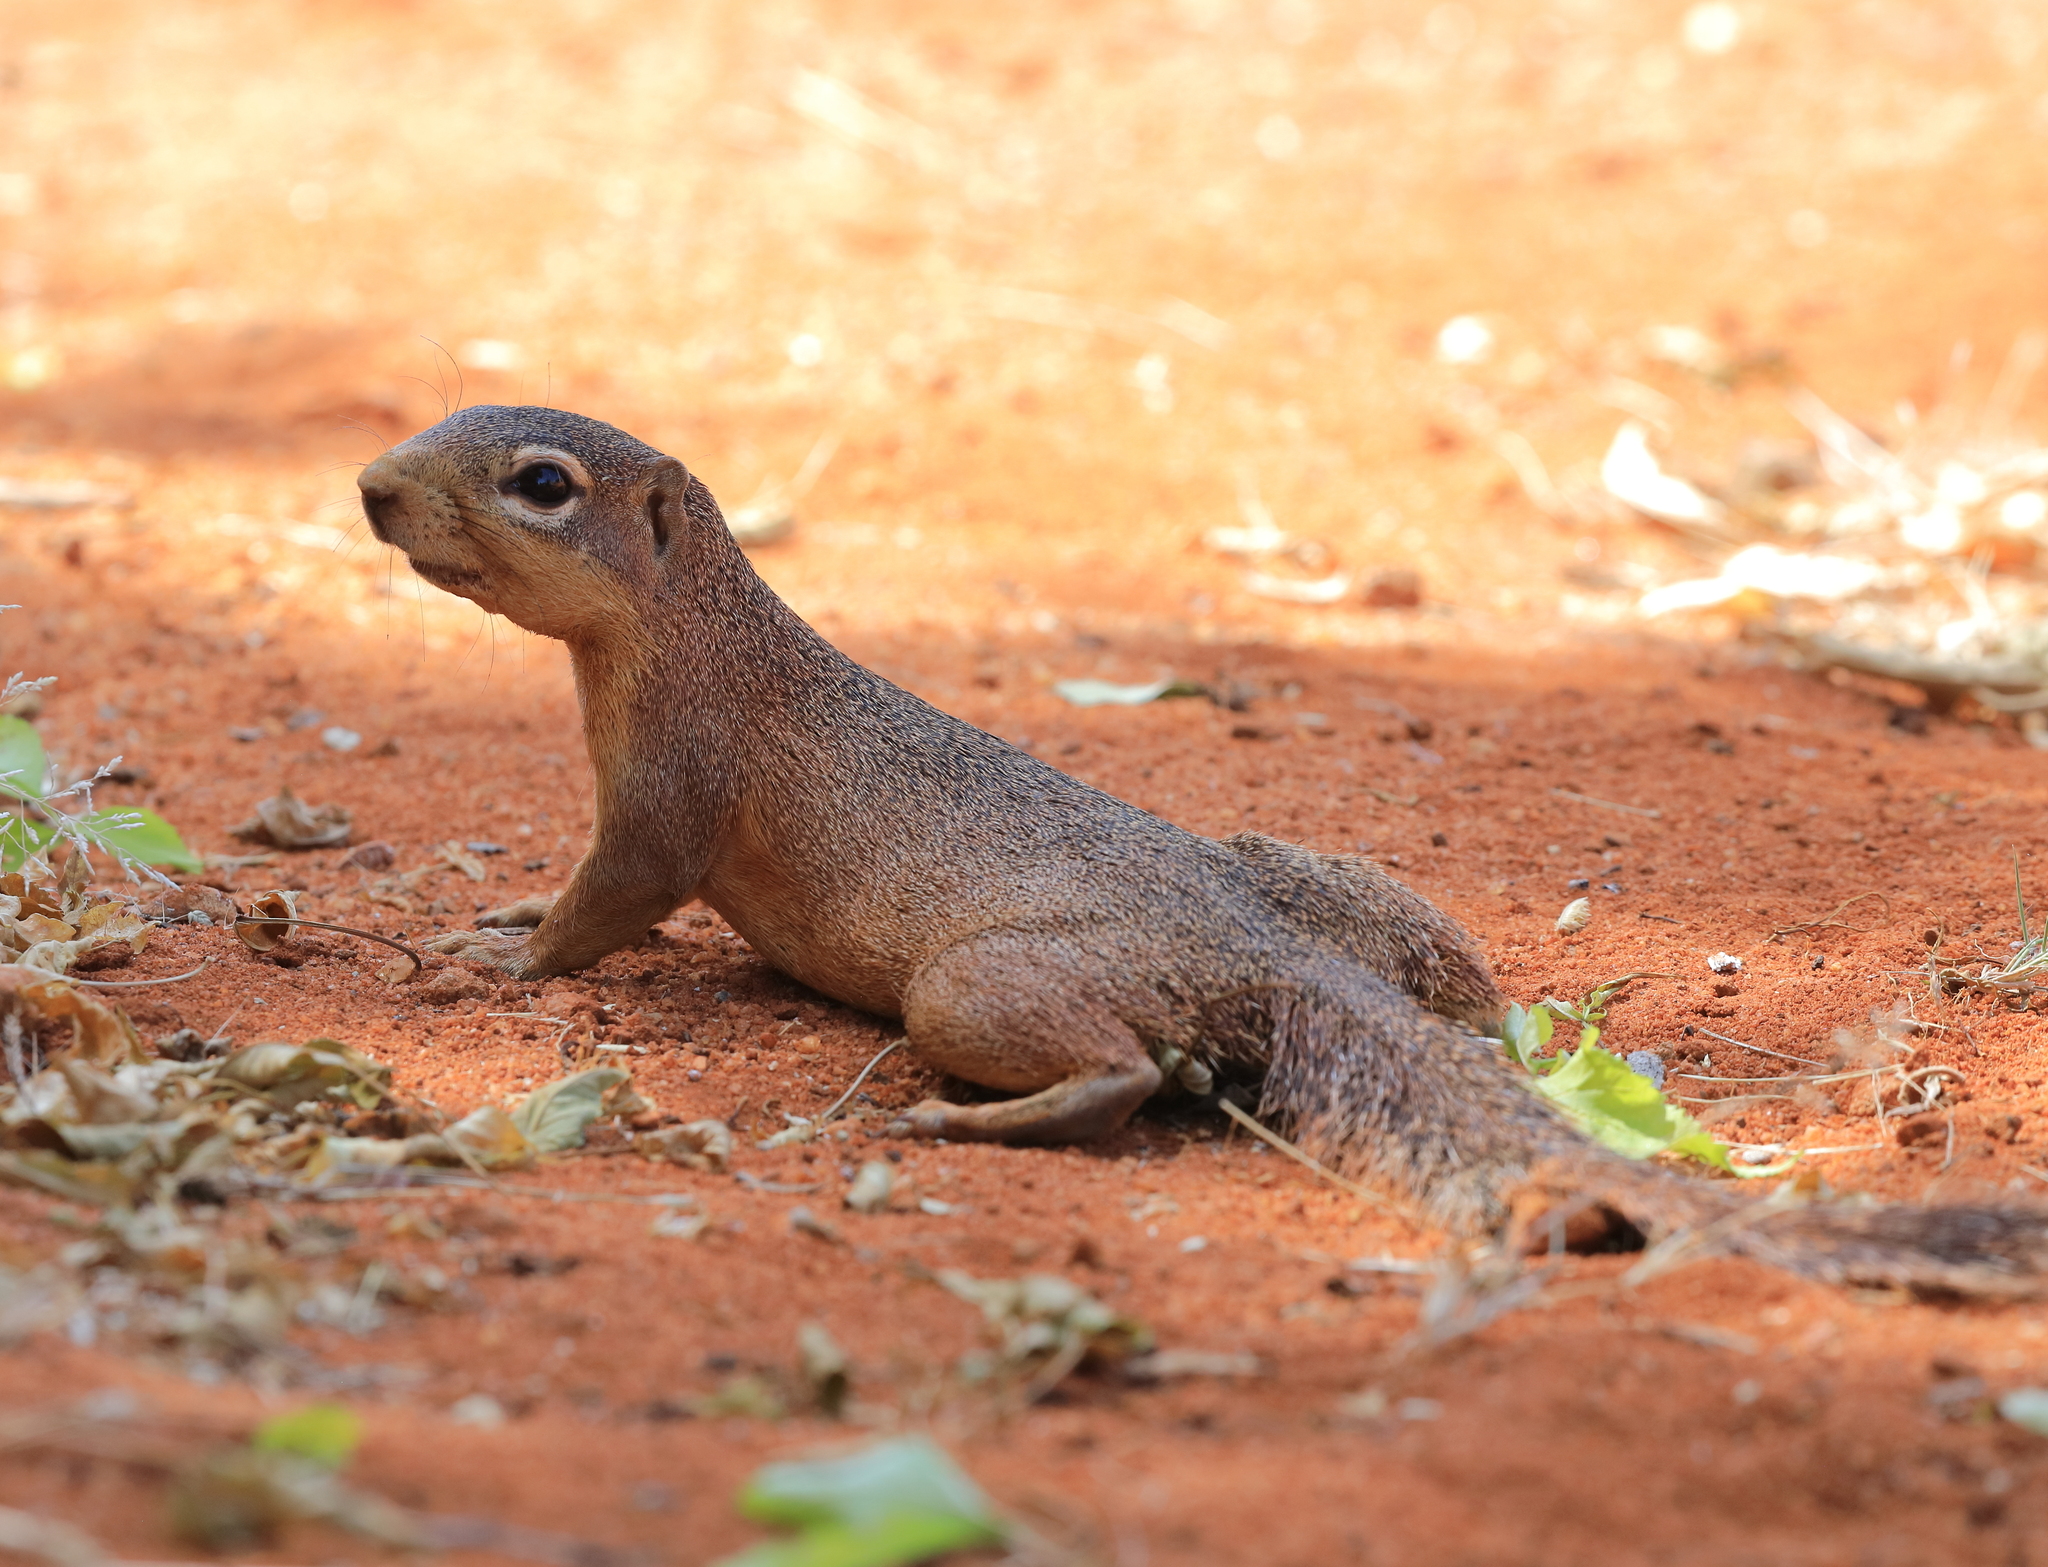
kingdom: Animalia
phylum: Chordata
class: Mammalia
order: Rodentia
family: Sciuridae
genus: Xerus
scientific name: Xerus rutilus
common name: Unstriped ground squirrel
